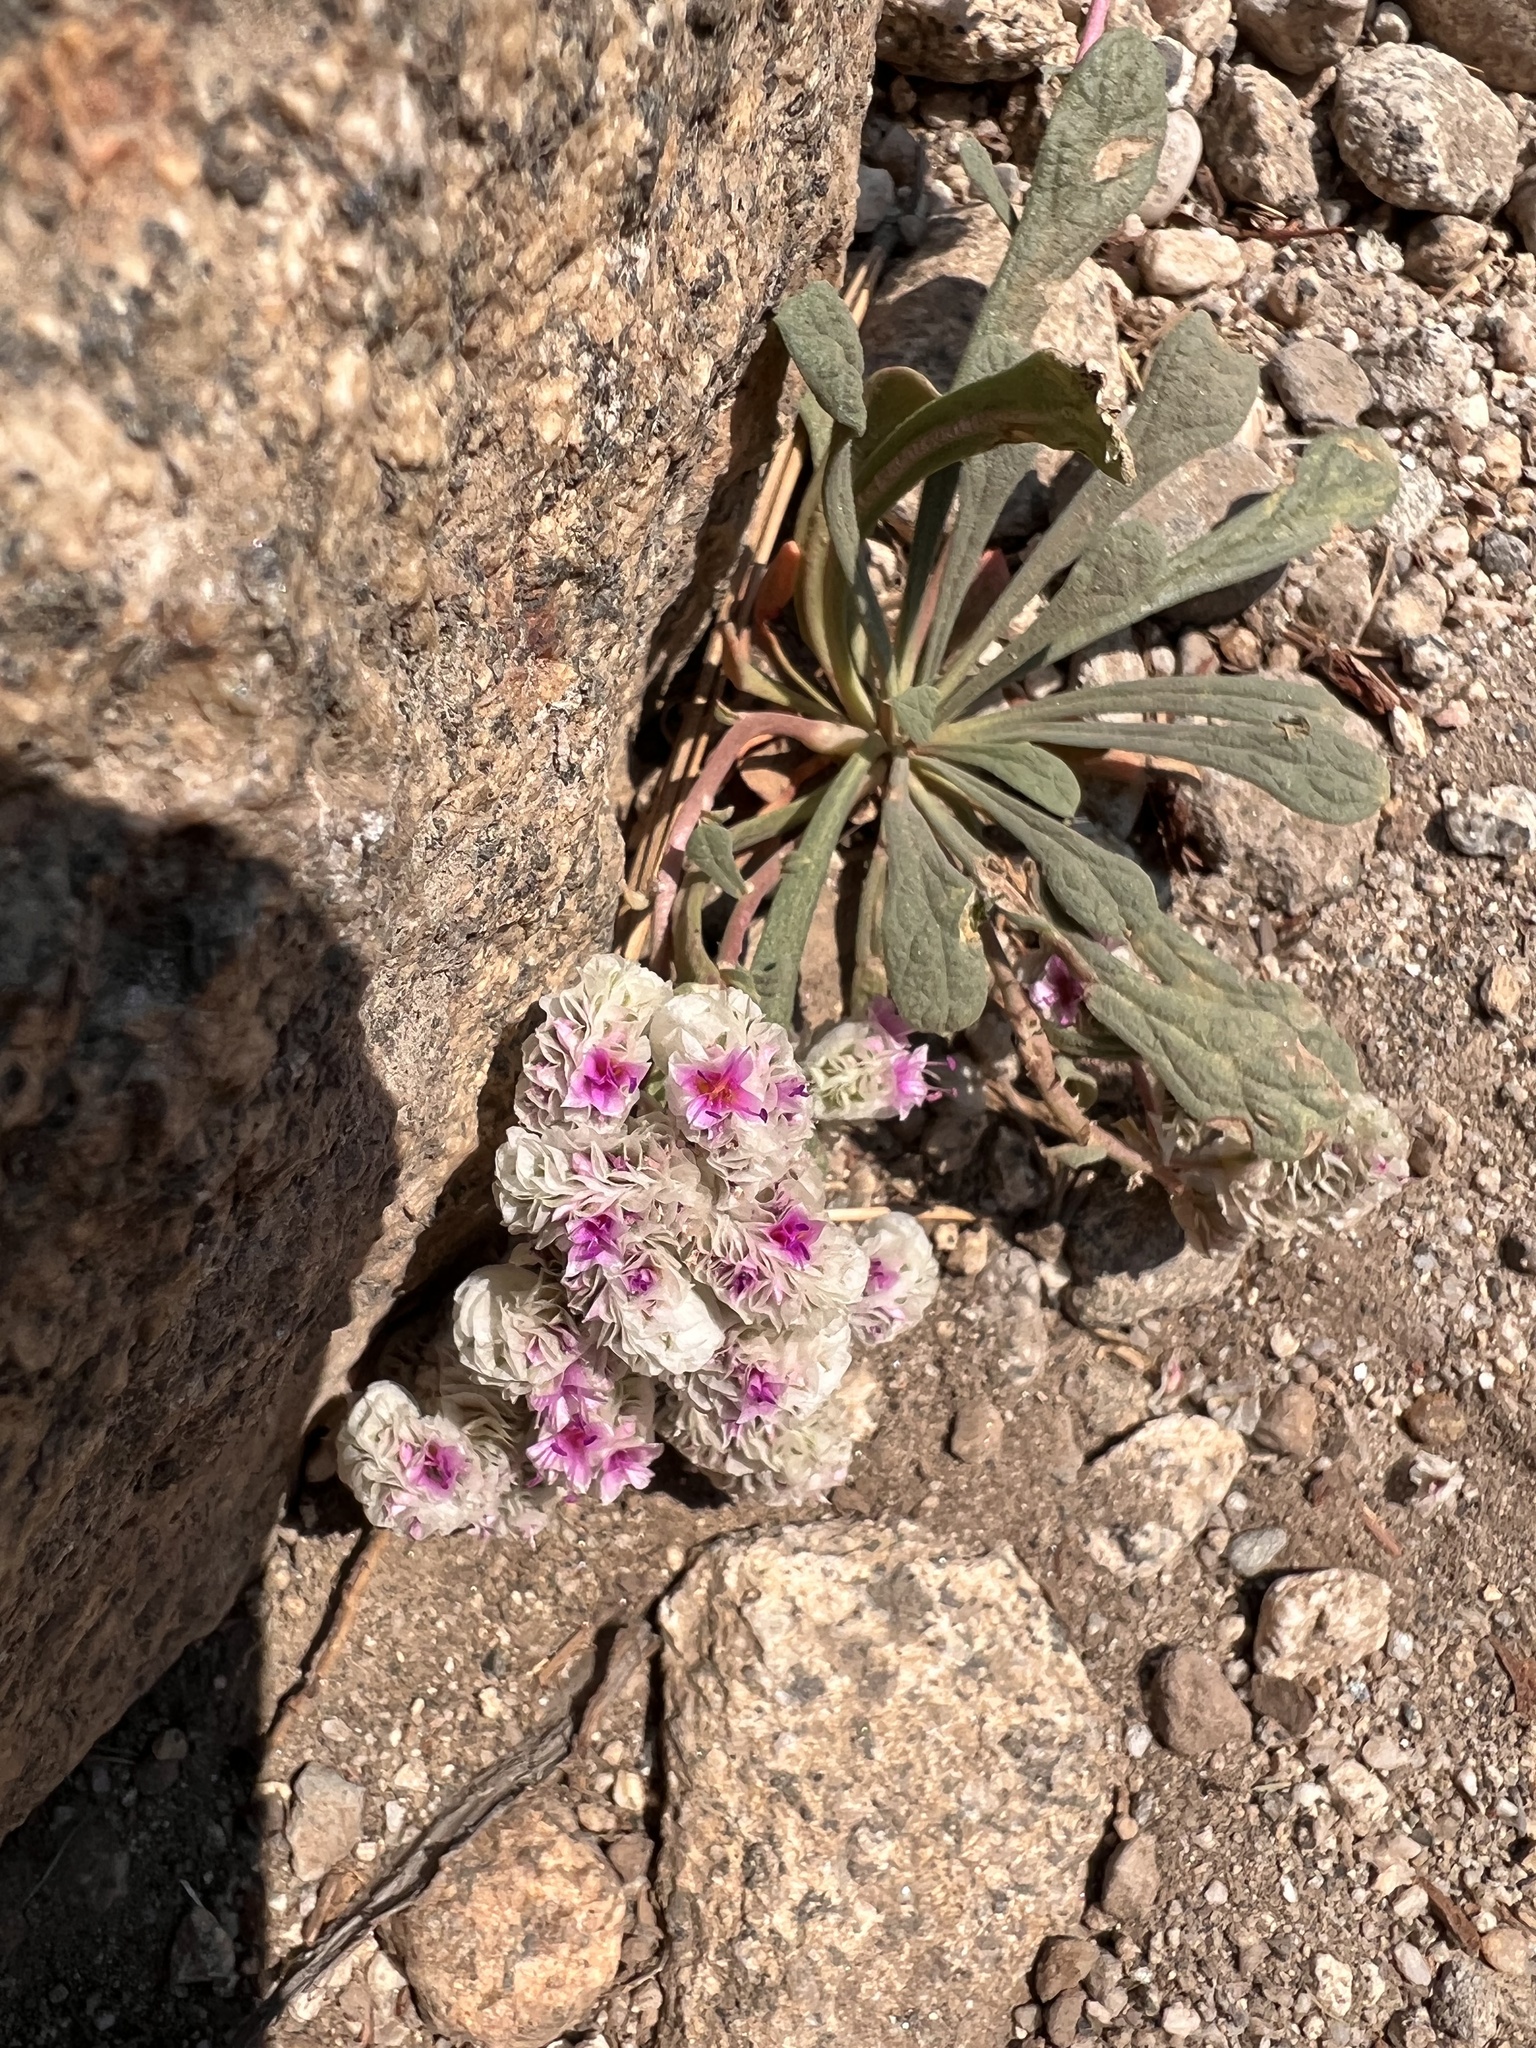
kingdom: Plantae
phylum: Tracheophyta
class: Magnoliopsida
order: Caryophyllales
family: Montiaceae
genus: Calyptridium
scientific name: Calyptridium monospermum
